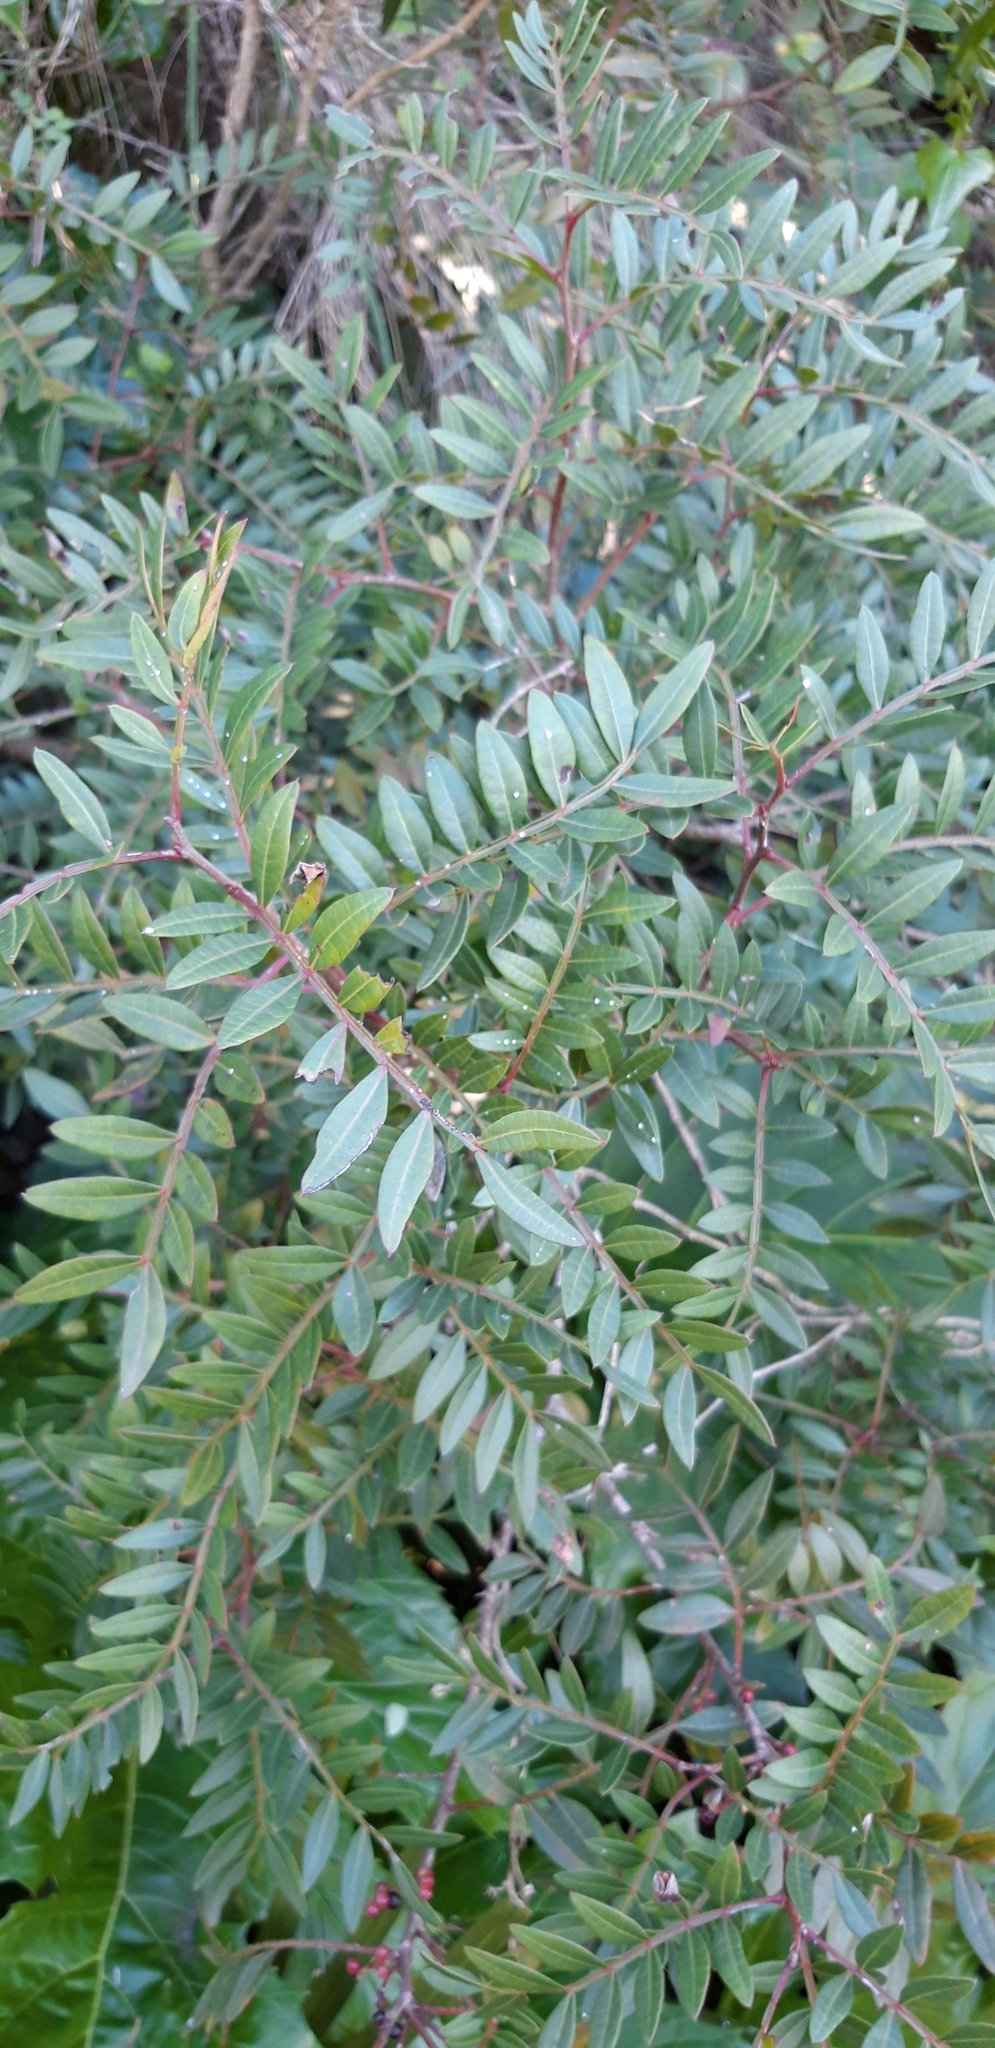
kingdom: Plantae
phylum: Tracheophyta
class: Magnoliopsida
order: Sapindales
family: Anacardiaceae
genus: Pistacia
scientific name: Pistacia lentiscus
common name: Lentisk
